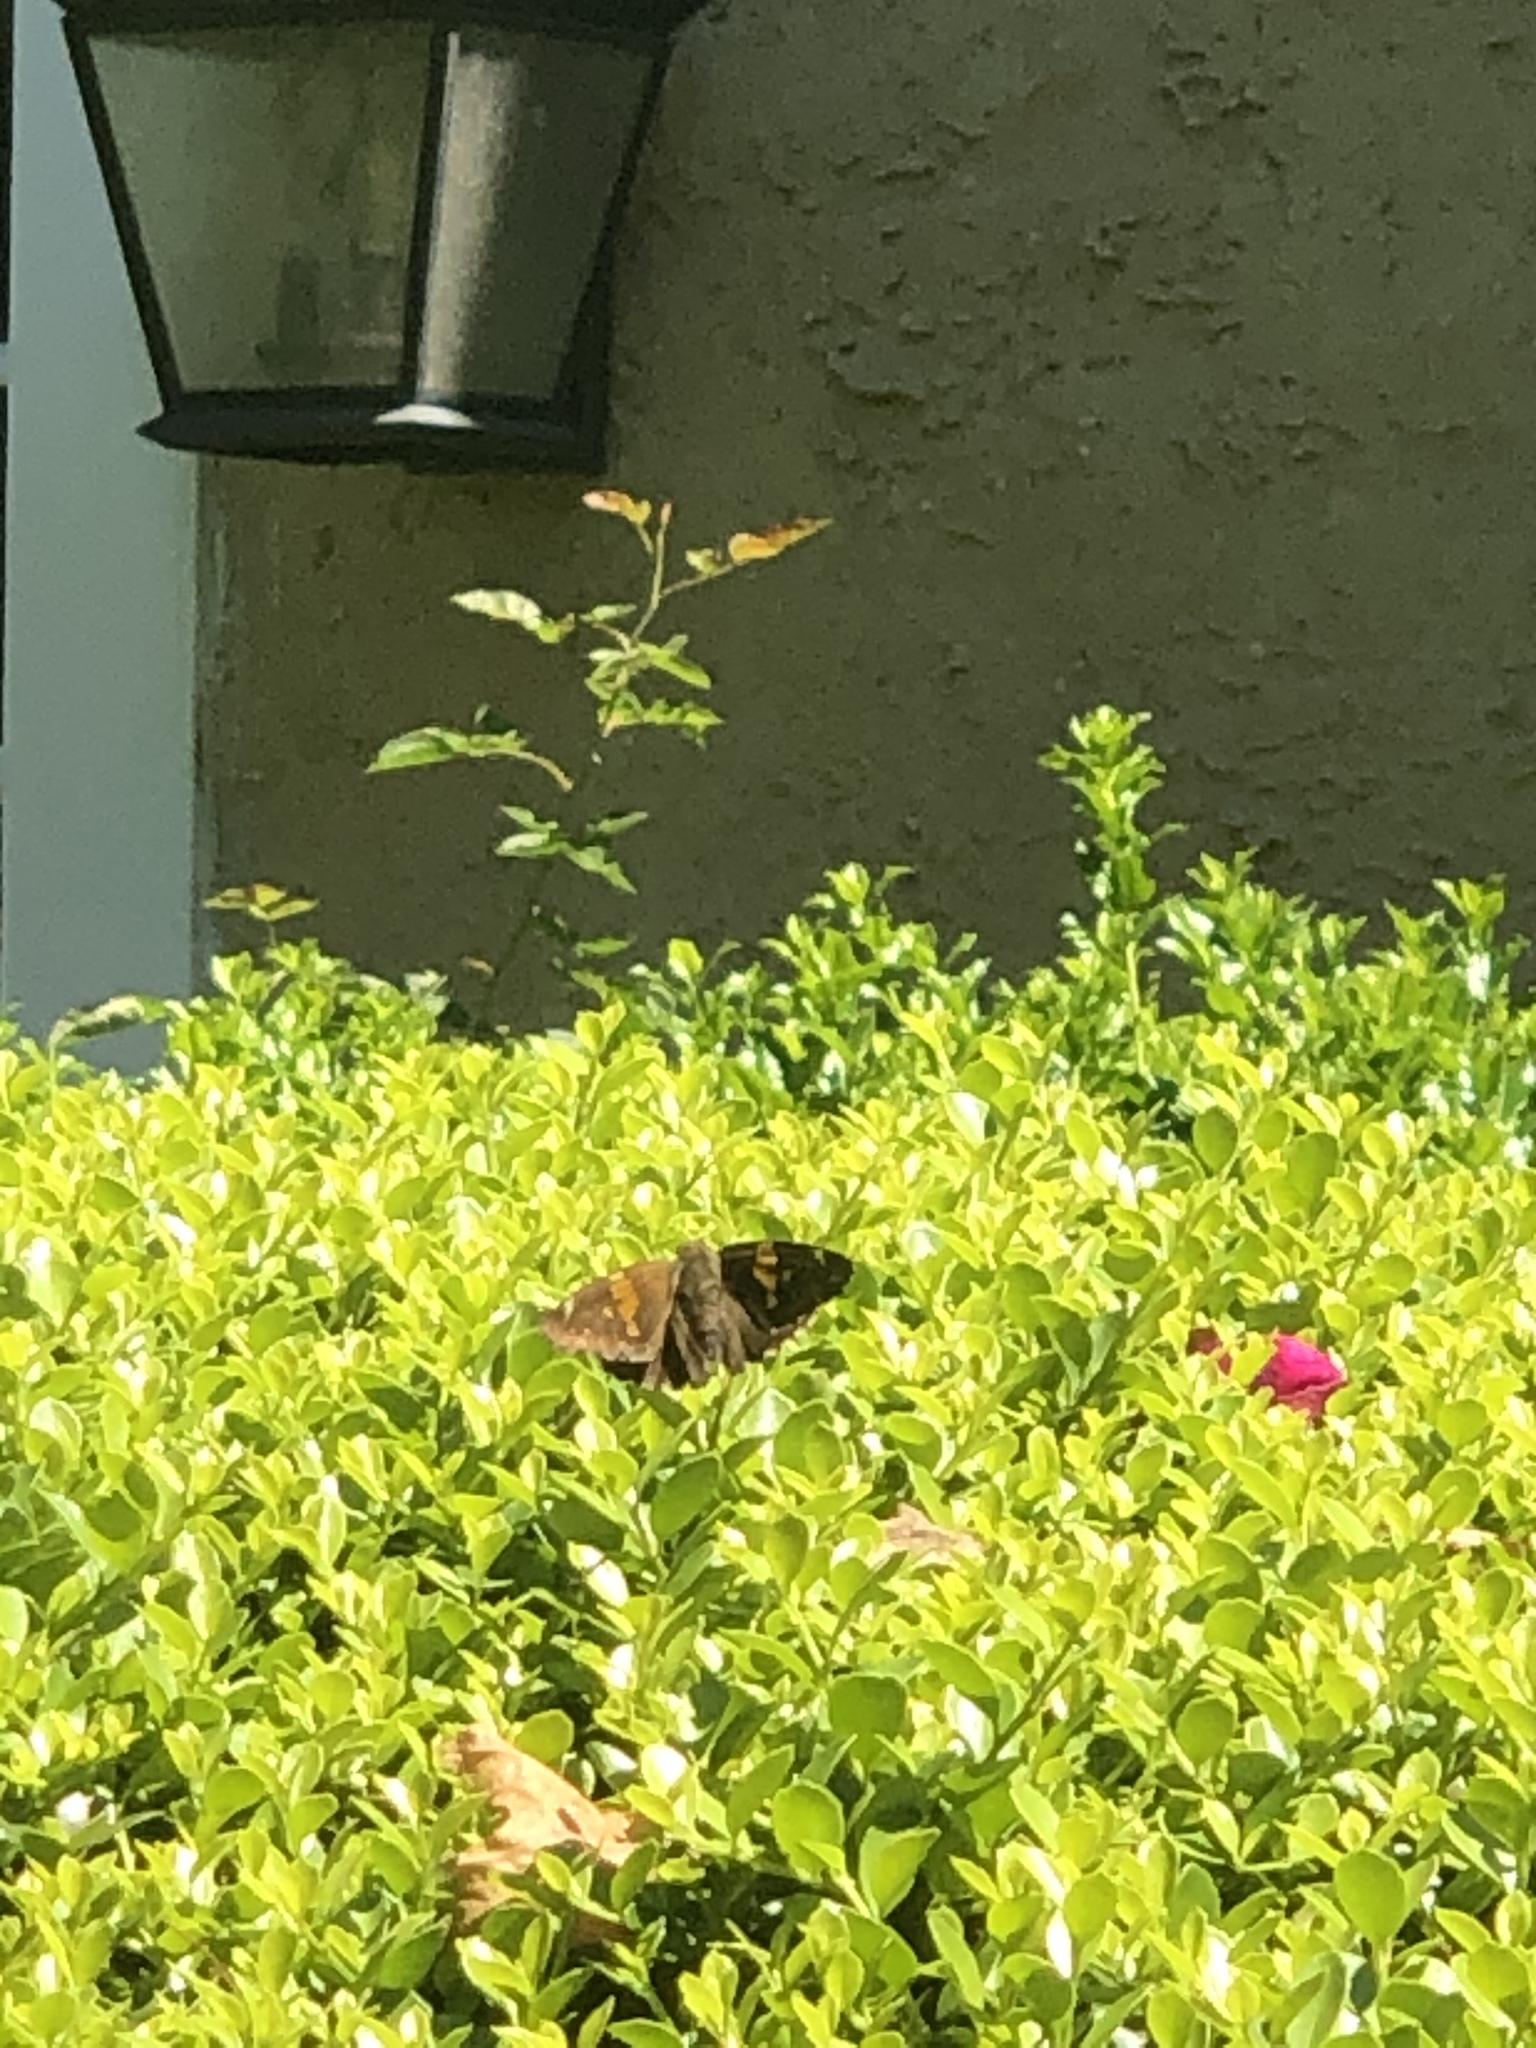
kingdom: Animalia
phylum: Arthropoda
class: Insecta
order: Lepidoptera
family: Hesperiidae
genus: Epargyreus
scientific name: Epargyreus clarus
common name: Silver-spotted skipper
